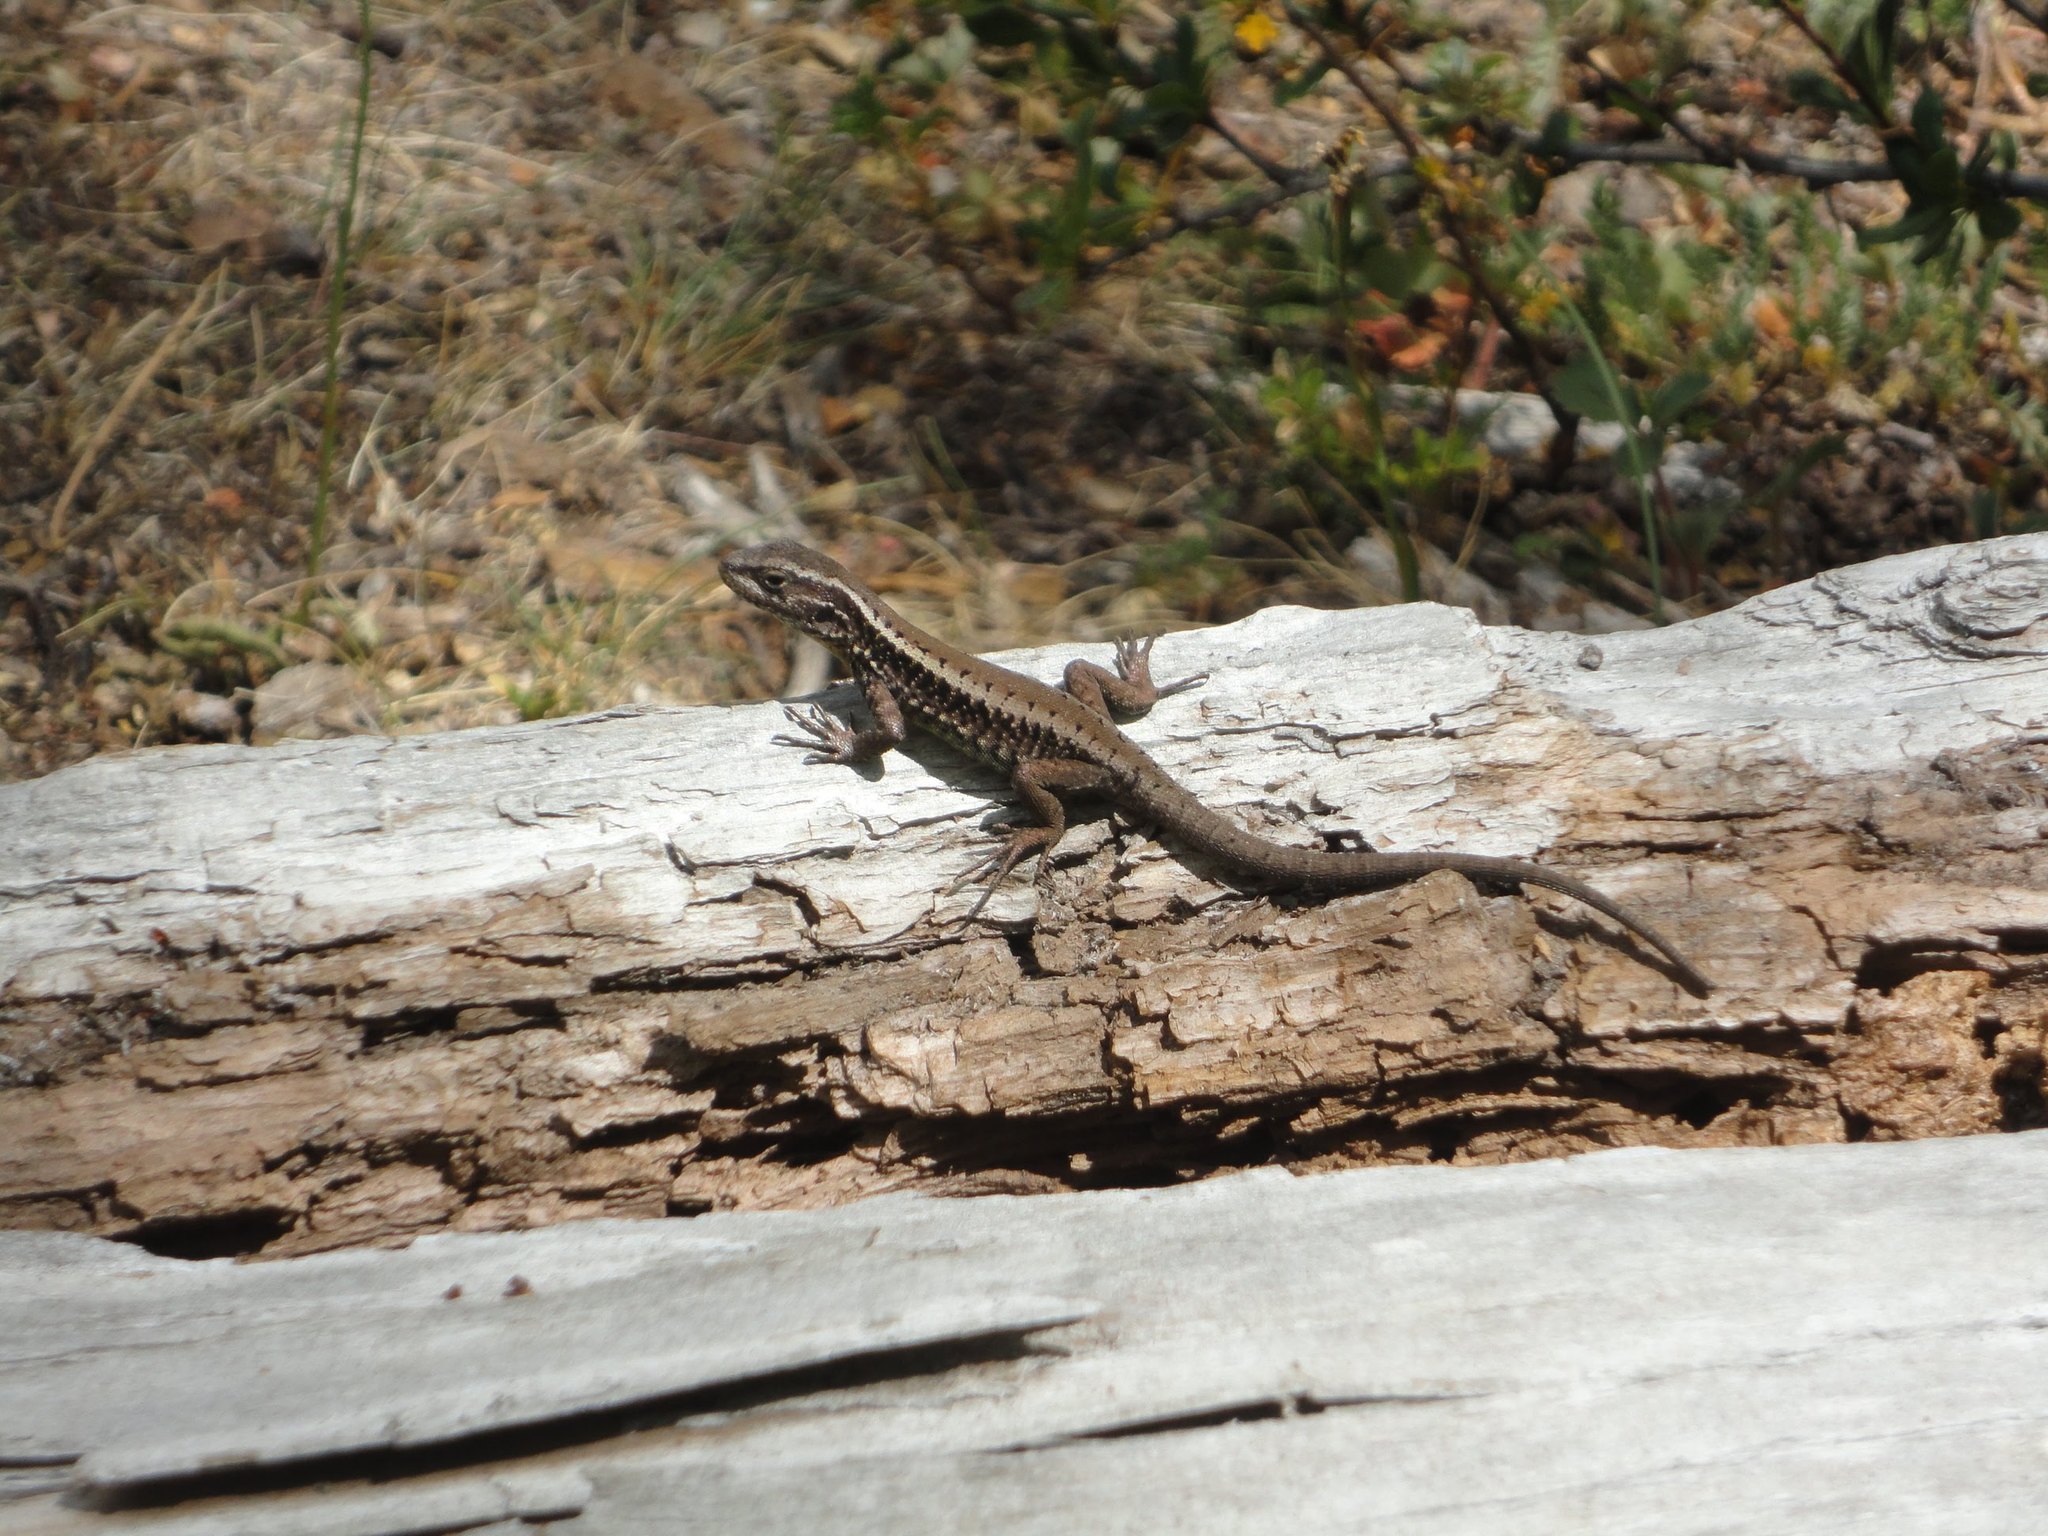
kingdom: Animalia
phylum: Chordata
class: Squamata
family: Liolaemidae
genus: Liolaemus
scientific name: Liolaemus pictus
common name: Painted tree iguana
